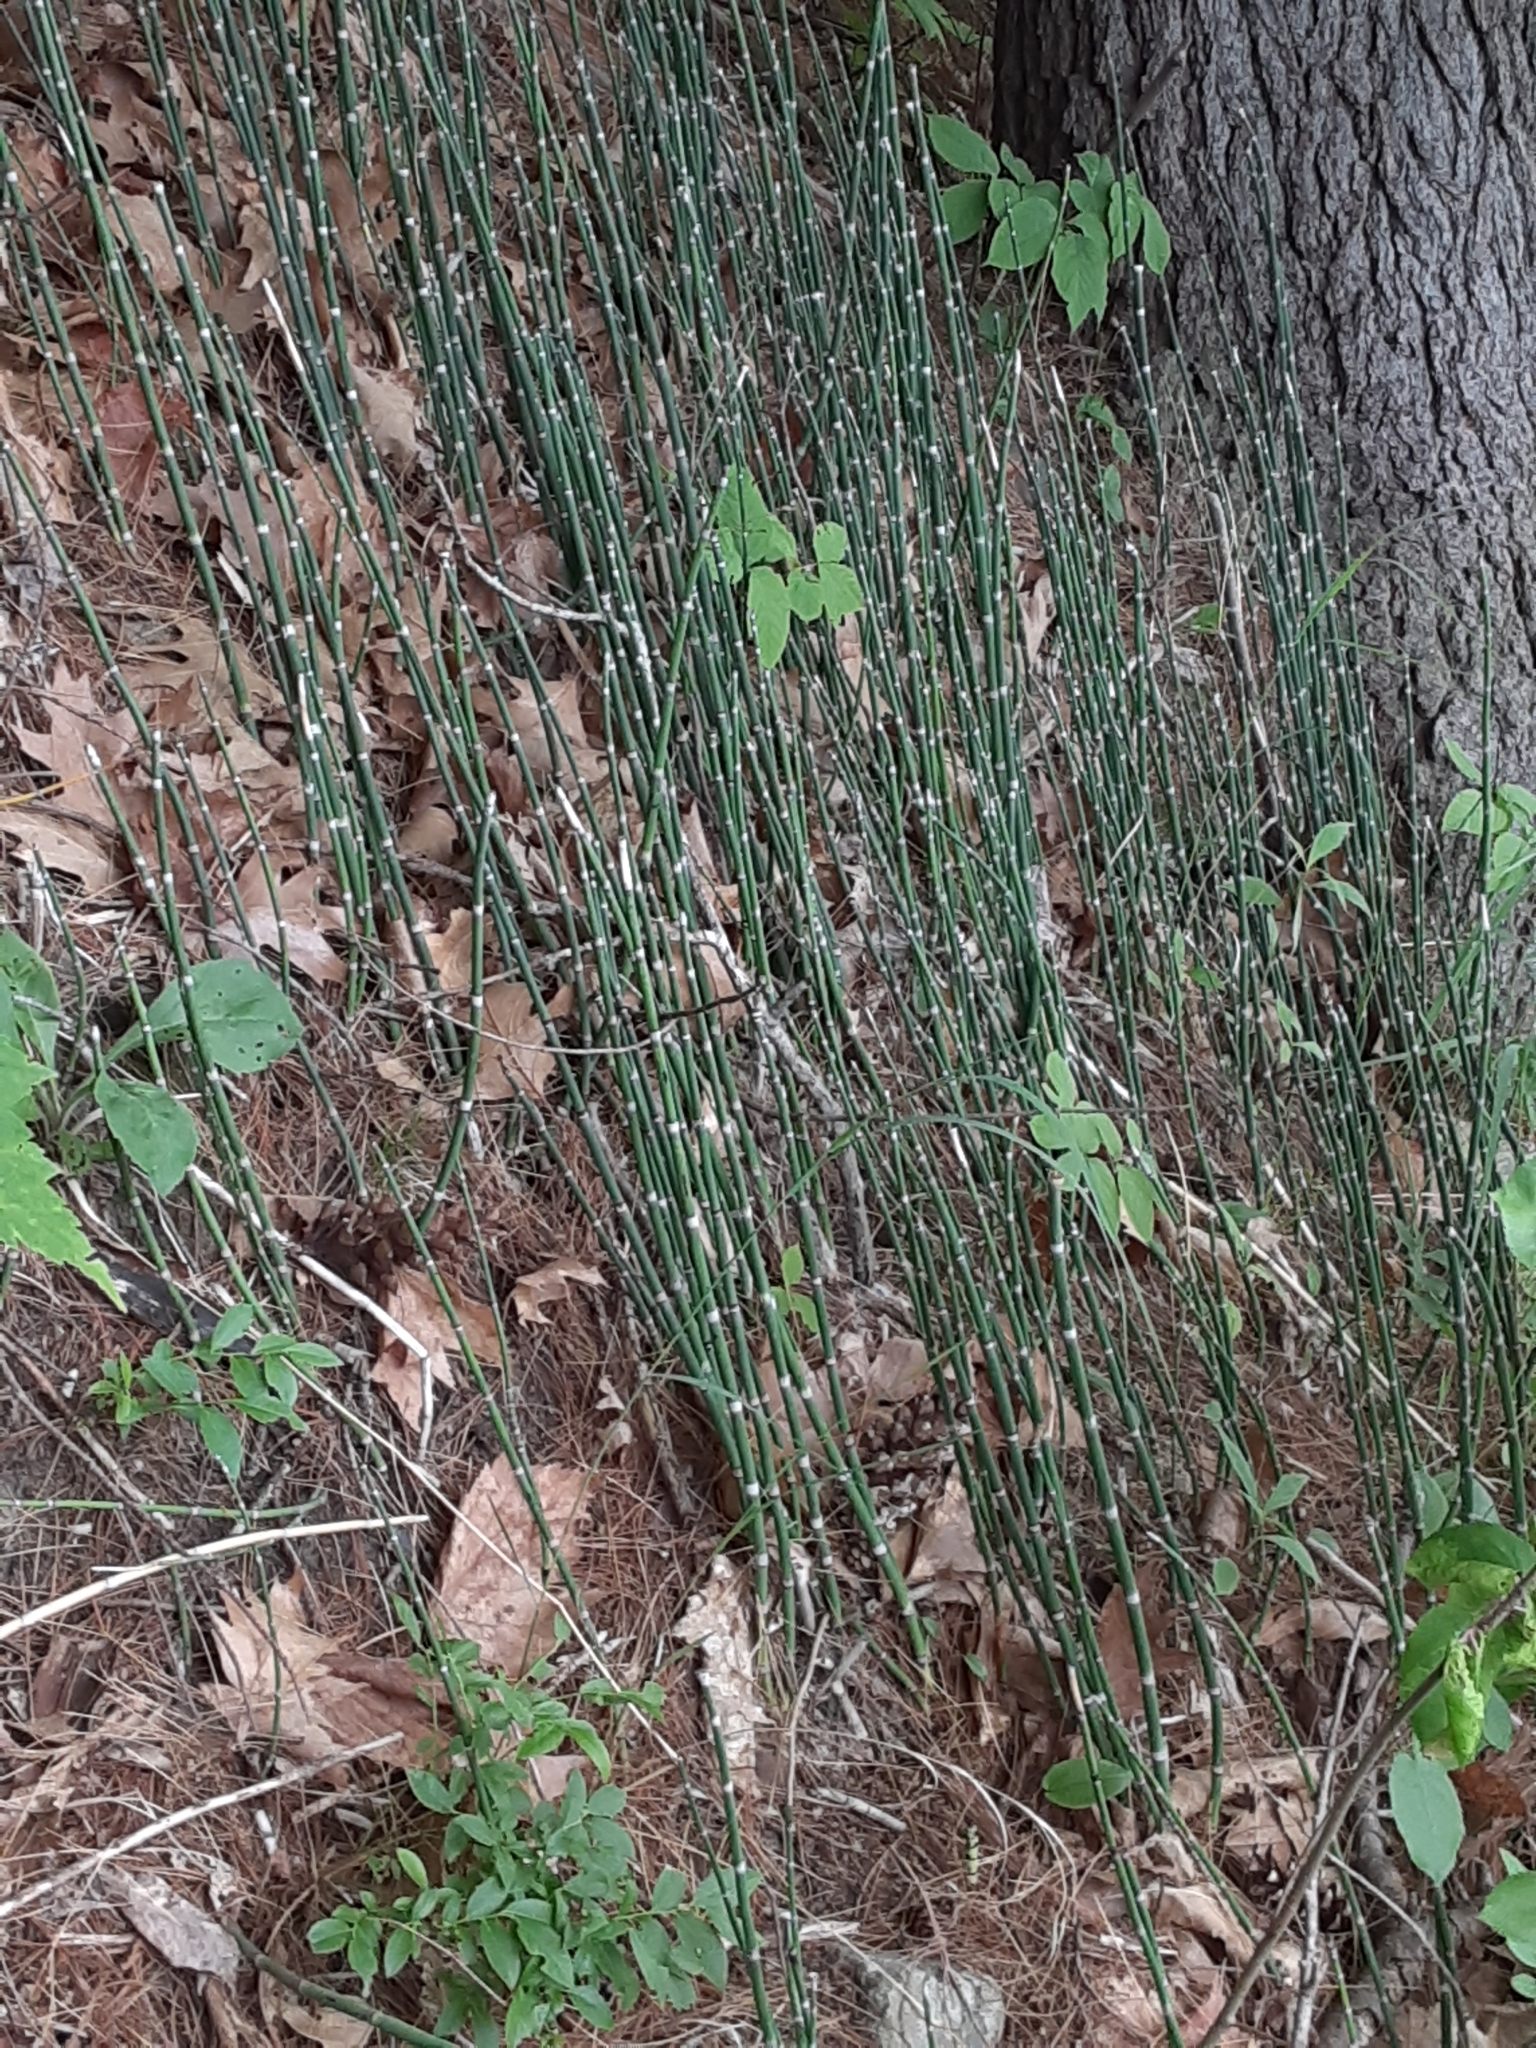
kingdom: Plantae
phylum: Tracheophyta
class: Polypodiopsida
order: Equisetales
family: Equisetaceae
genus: Equisetum
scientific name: Equisetum praealtum
